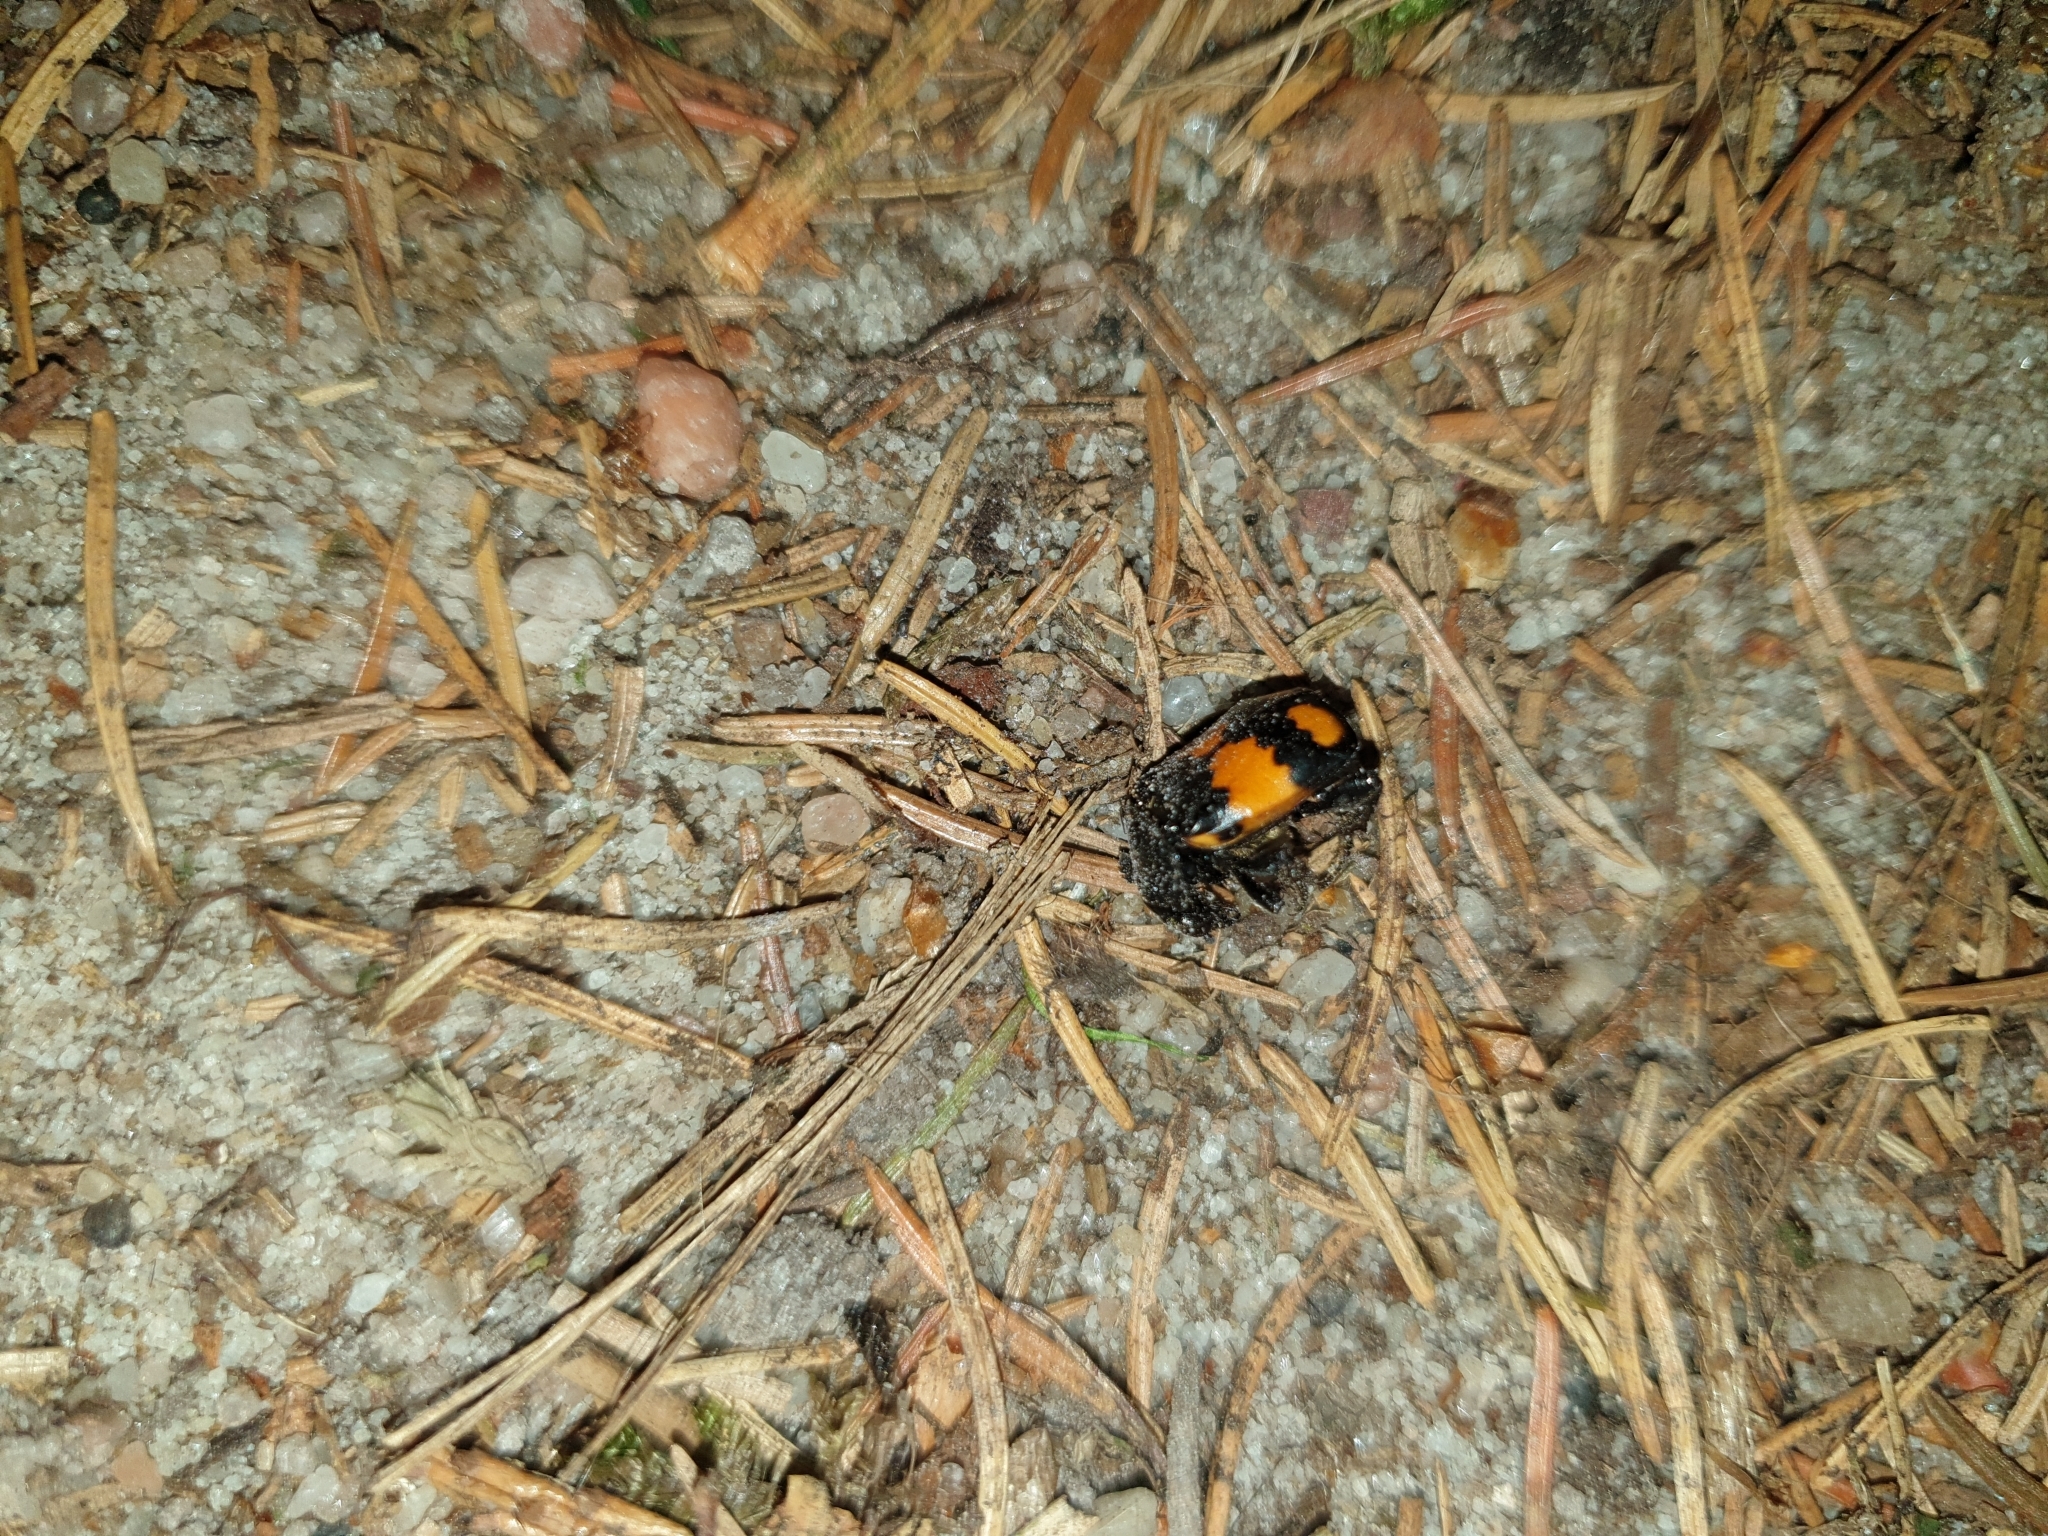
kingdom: Animalia
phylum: Arthropoda
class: Insecta
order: Coleoptera
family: Staphylinidae
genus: Nicrophorus
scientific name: Nicrophorus vespilloides
